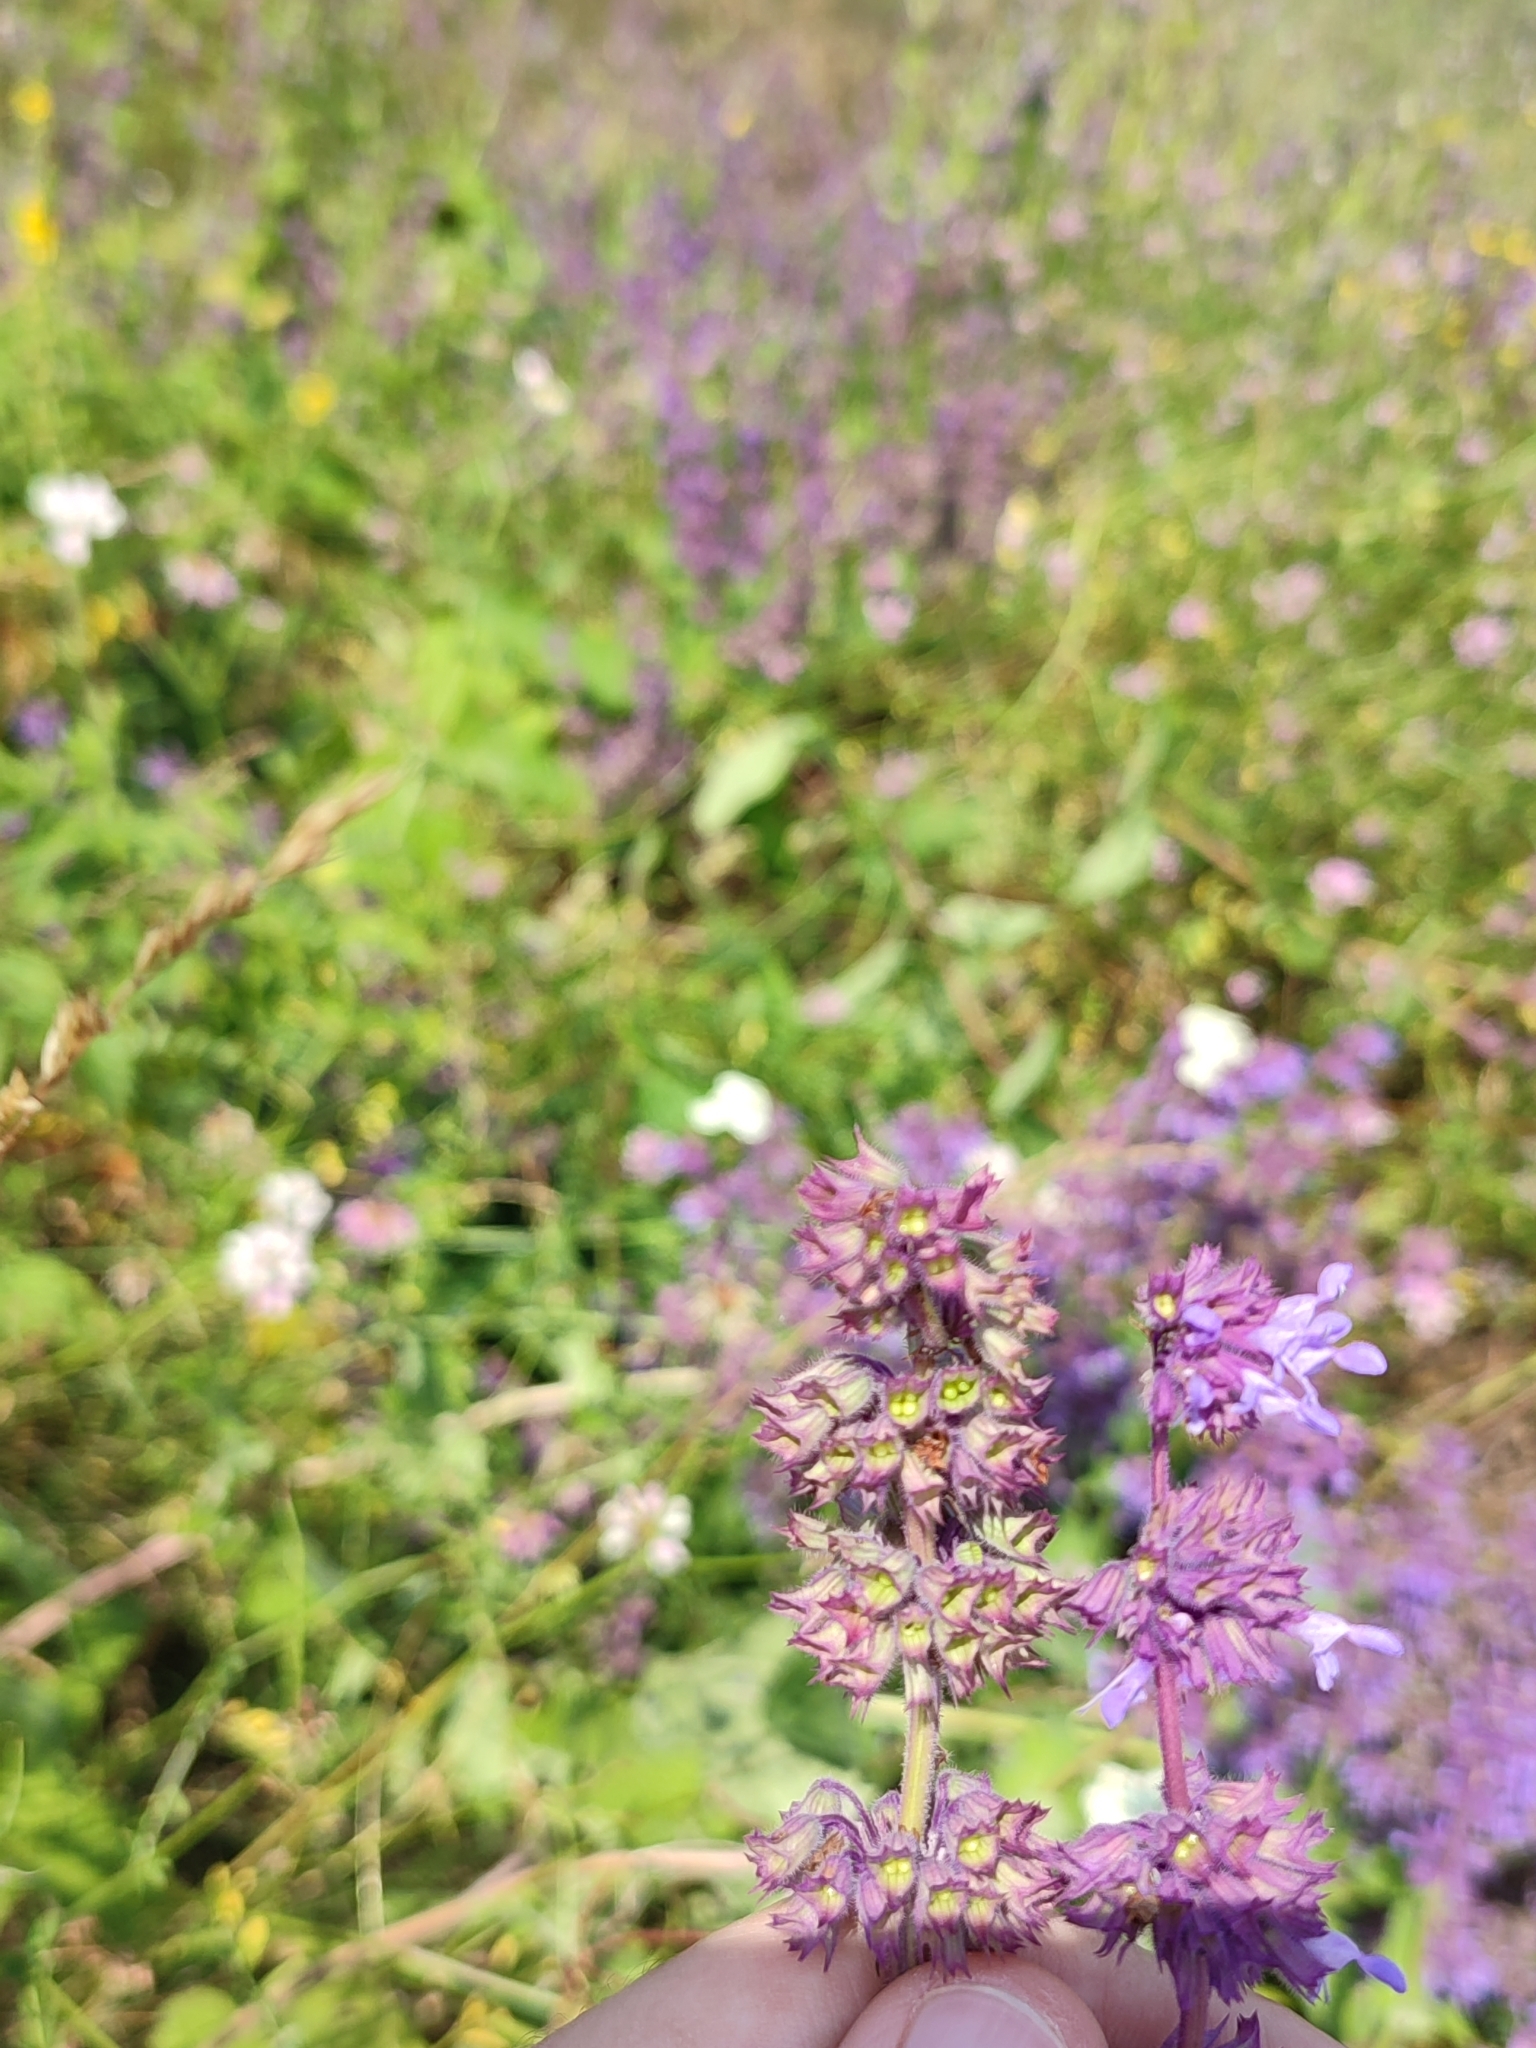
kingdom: Plantae
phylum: Tracheophyta
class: Magnoliopsida
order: Lamiales
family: Lamiaceae
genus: Salvia
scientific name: Salvia verticillata
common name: Whorled clary
